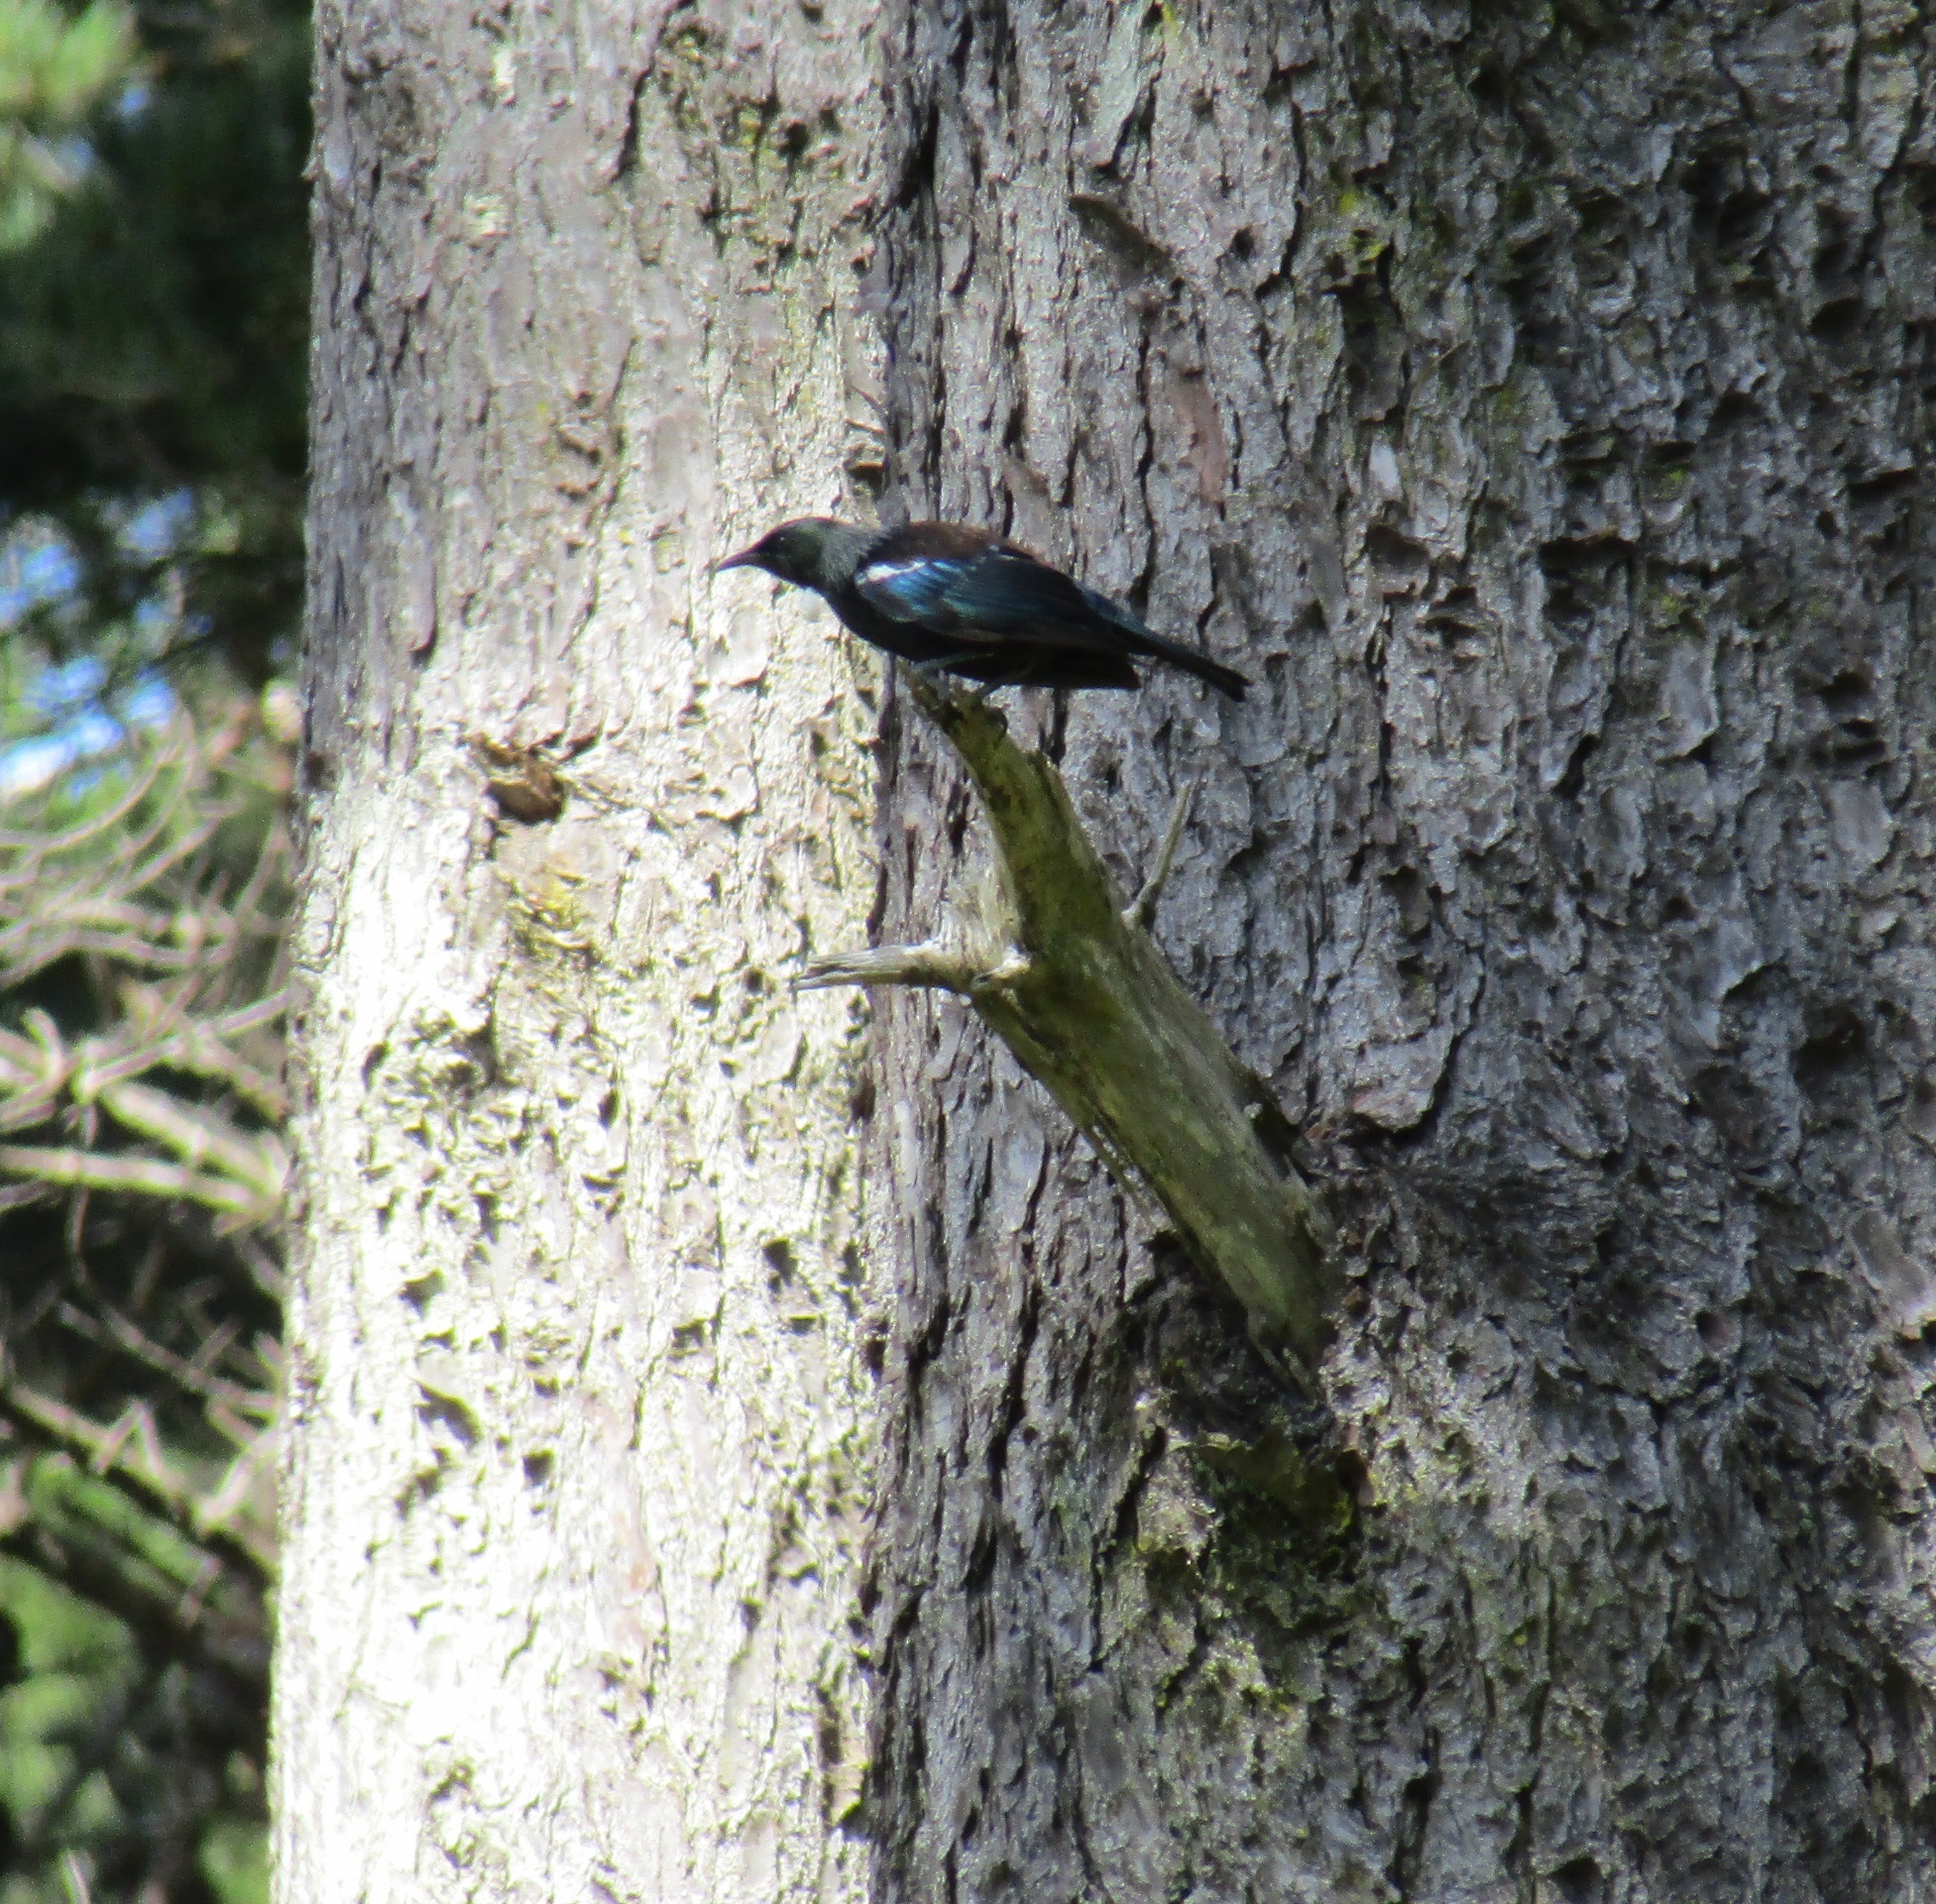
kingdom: Animalia
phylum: Chordata
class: Aves
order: Passeriformes
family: Meliphagidae
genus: Prosthemadera
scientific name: Prosthemadera novaeseelandiae
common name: Tui
